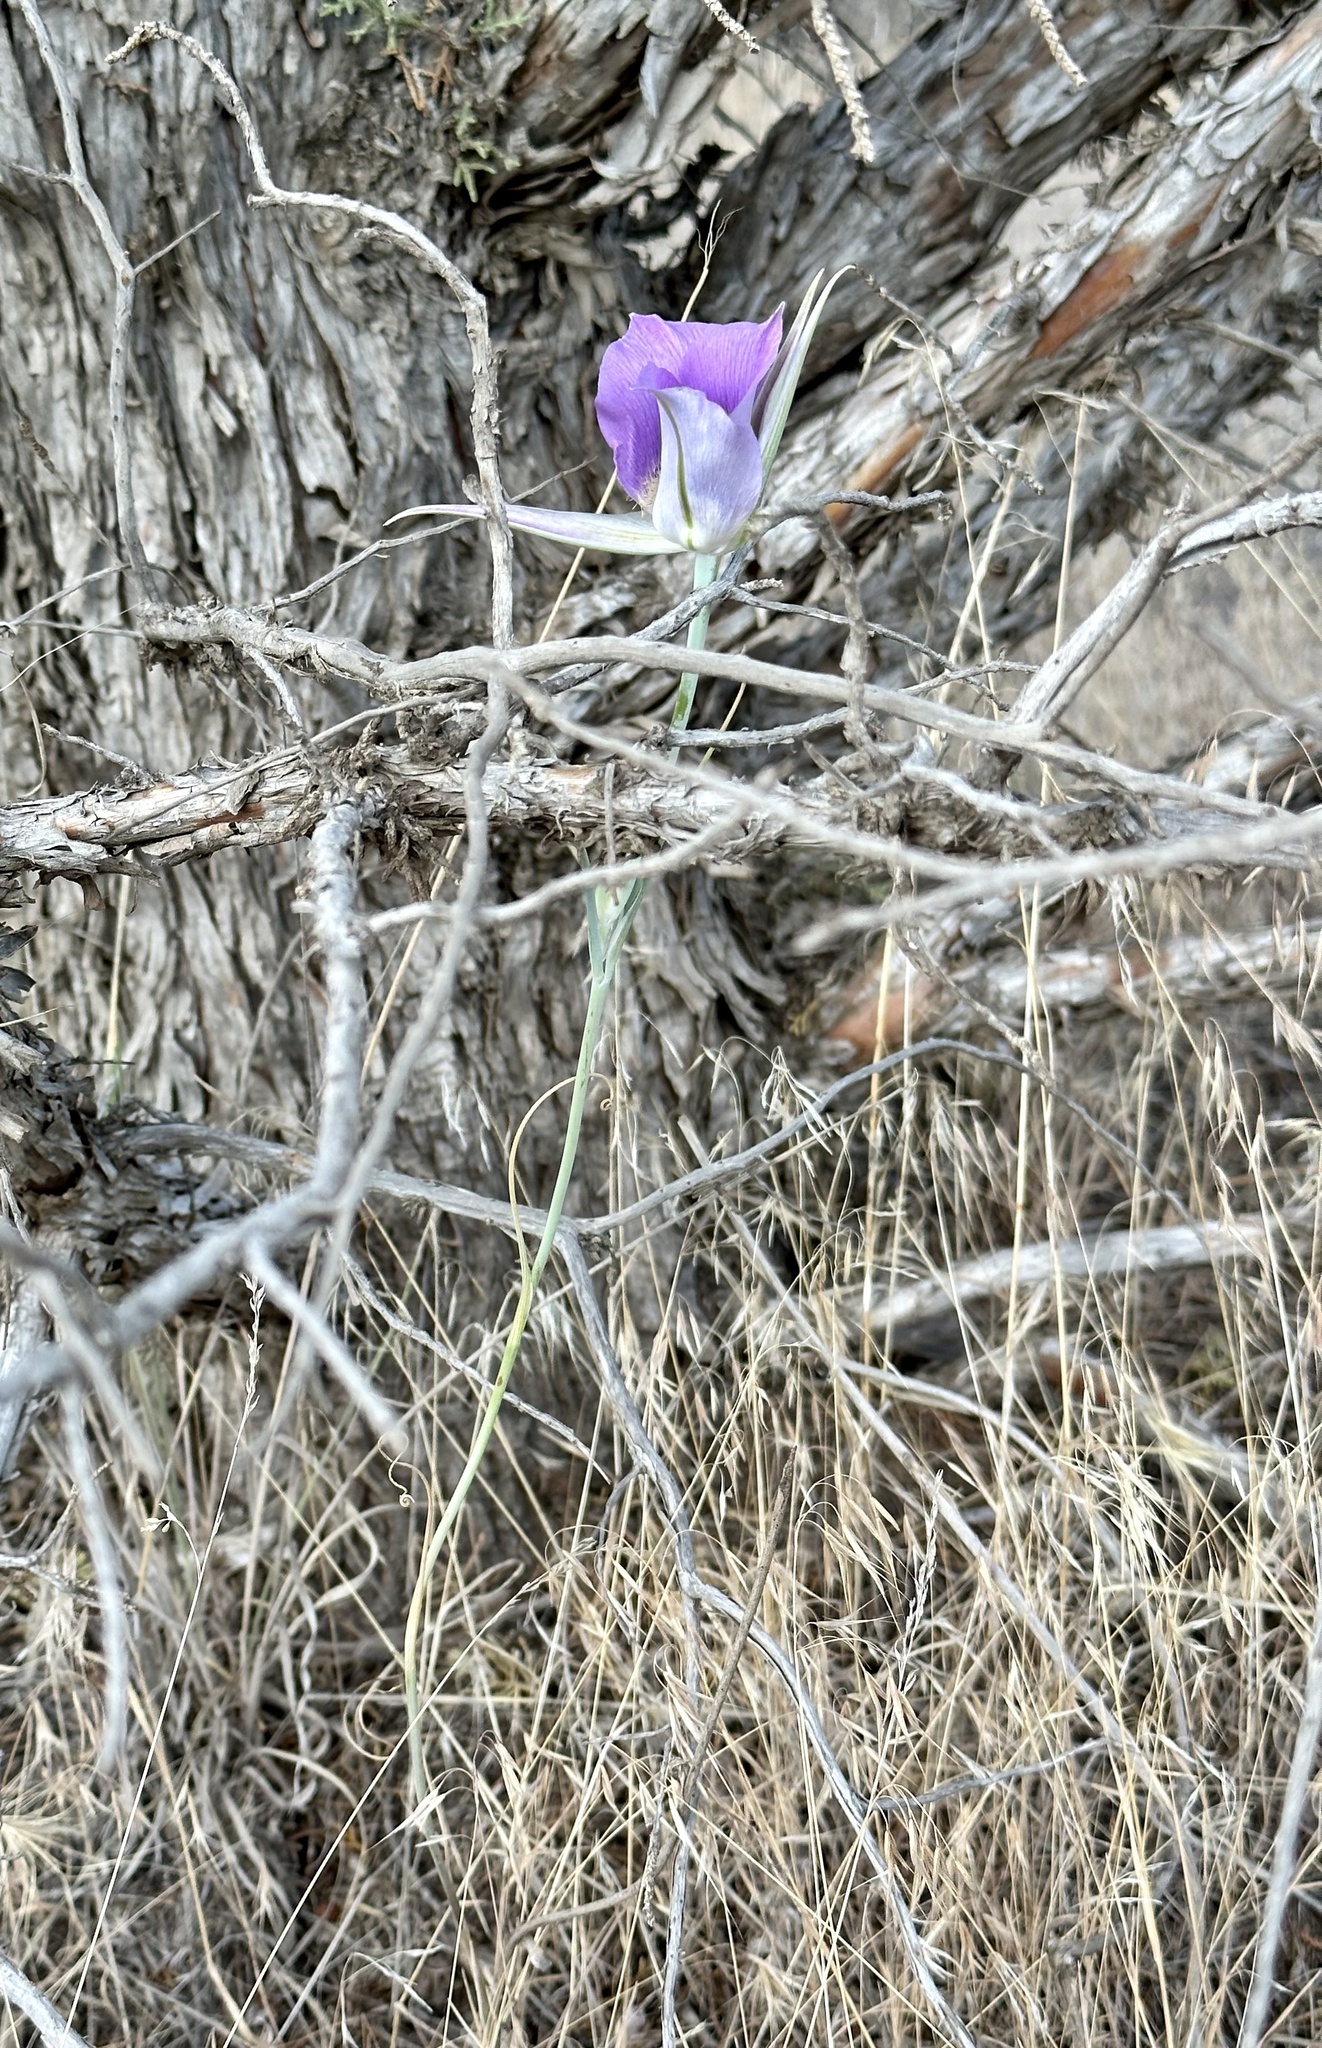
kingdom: Plantae
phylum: Tracheophyta
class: Liliopsida
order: Liliales
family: Liliaceae
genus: Calochortus
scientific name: Calochortus macrocarpus
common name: Green-band mariposa lily
